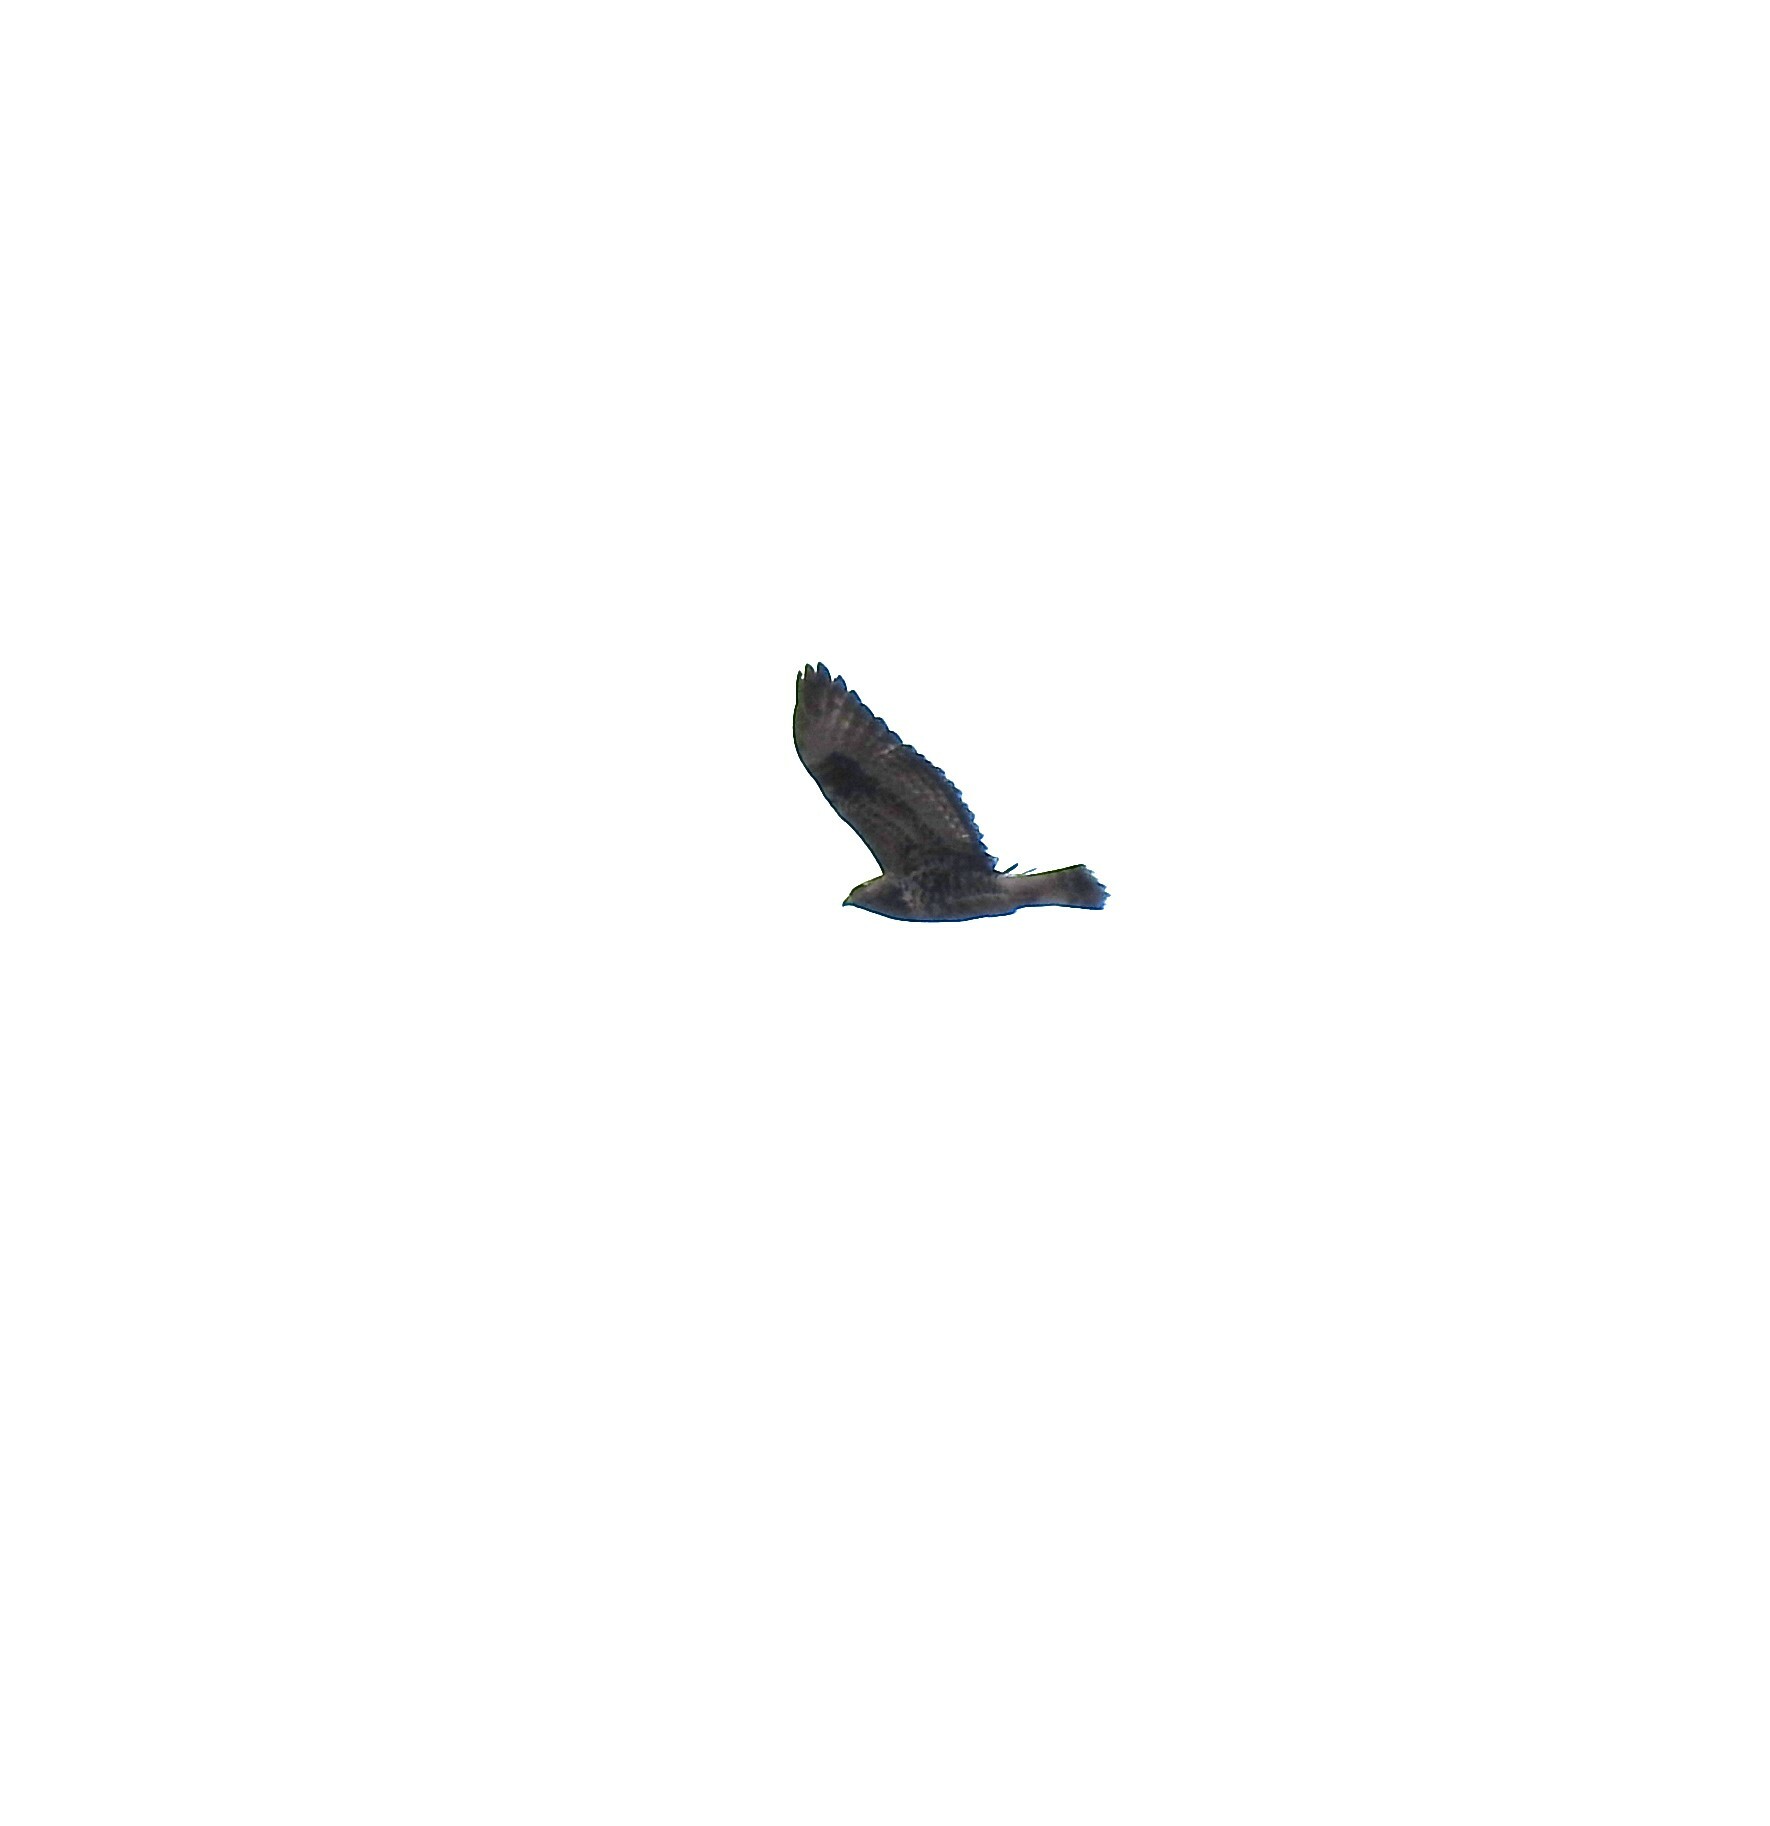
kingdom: Animalia
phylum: Chordata
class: Aves
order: Accipitriformes
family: Accipitridae
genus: Buteo
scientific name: Buteo lagopus
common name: Rough-legged buzzard
